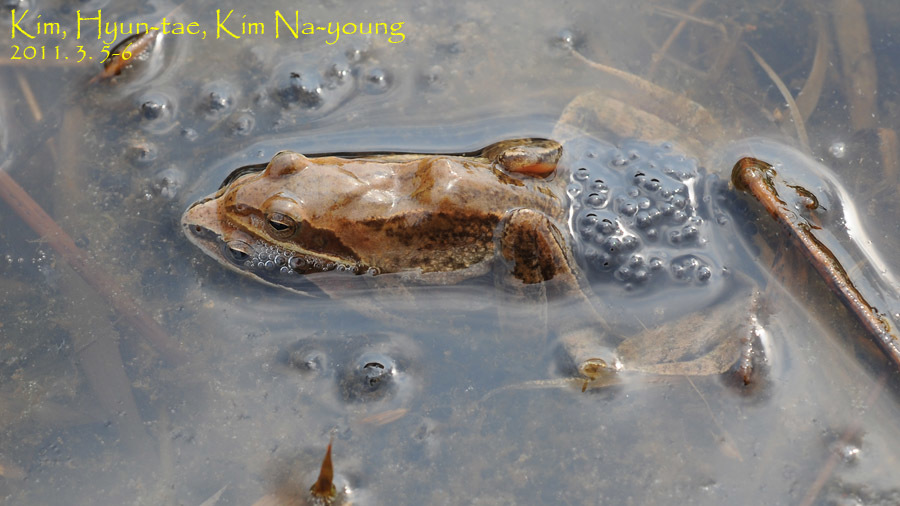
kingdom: Animalia
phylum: Chordata
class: Amphibia
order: Anura
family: Ranidae
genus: Rana
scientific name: Rana coreana
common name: Korean brown frog
